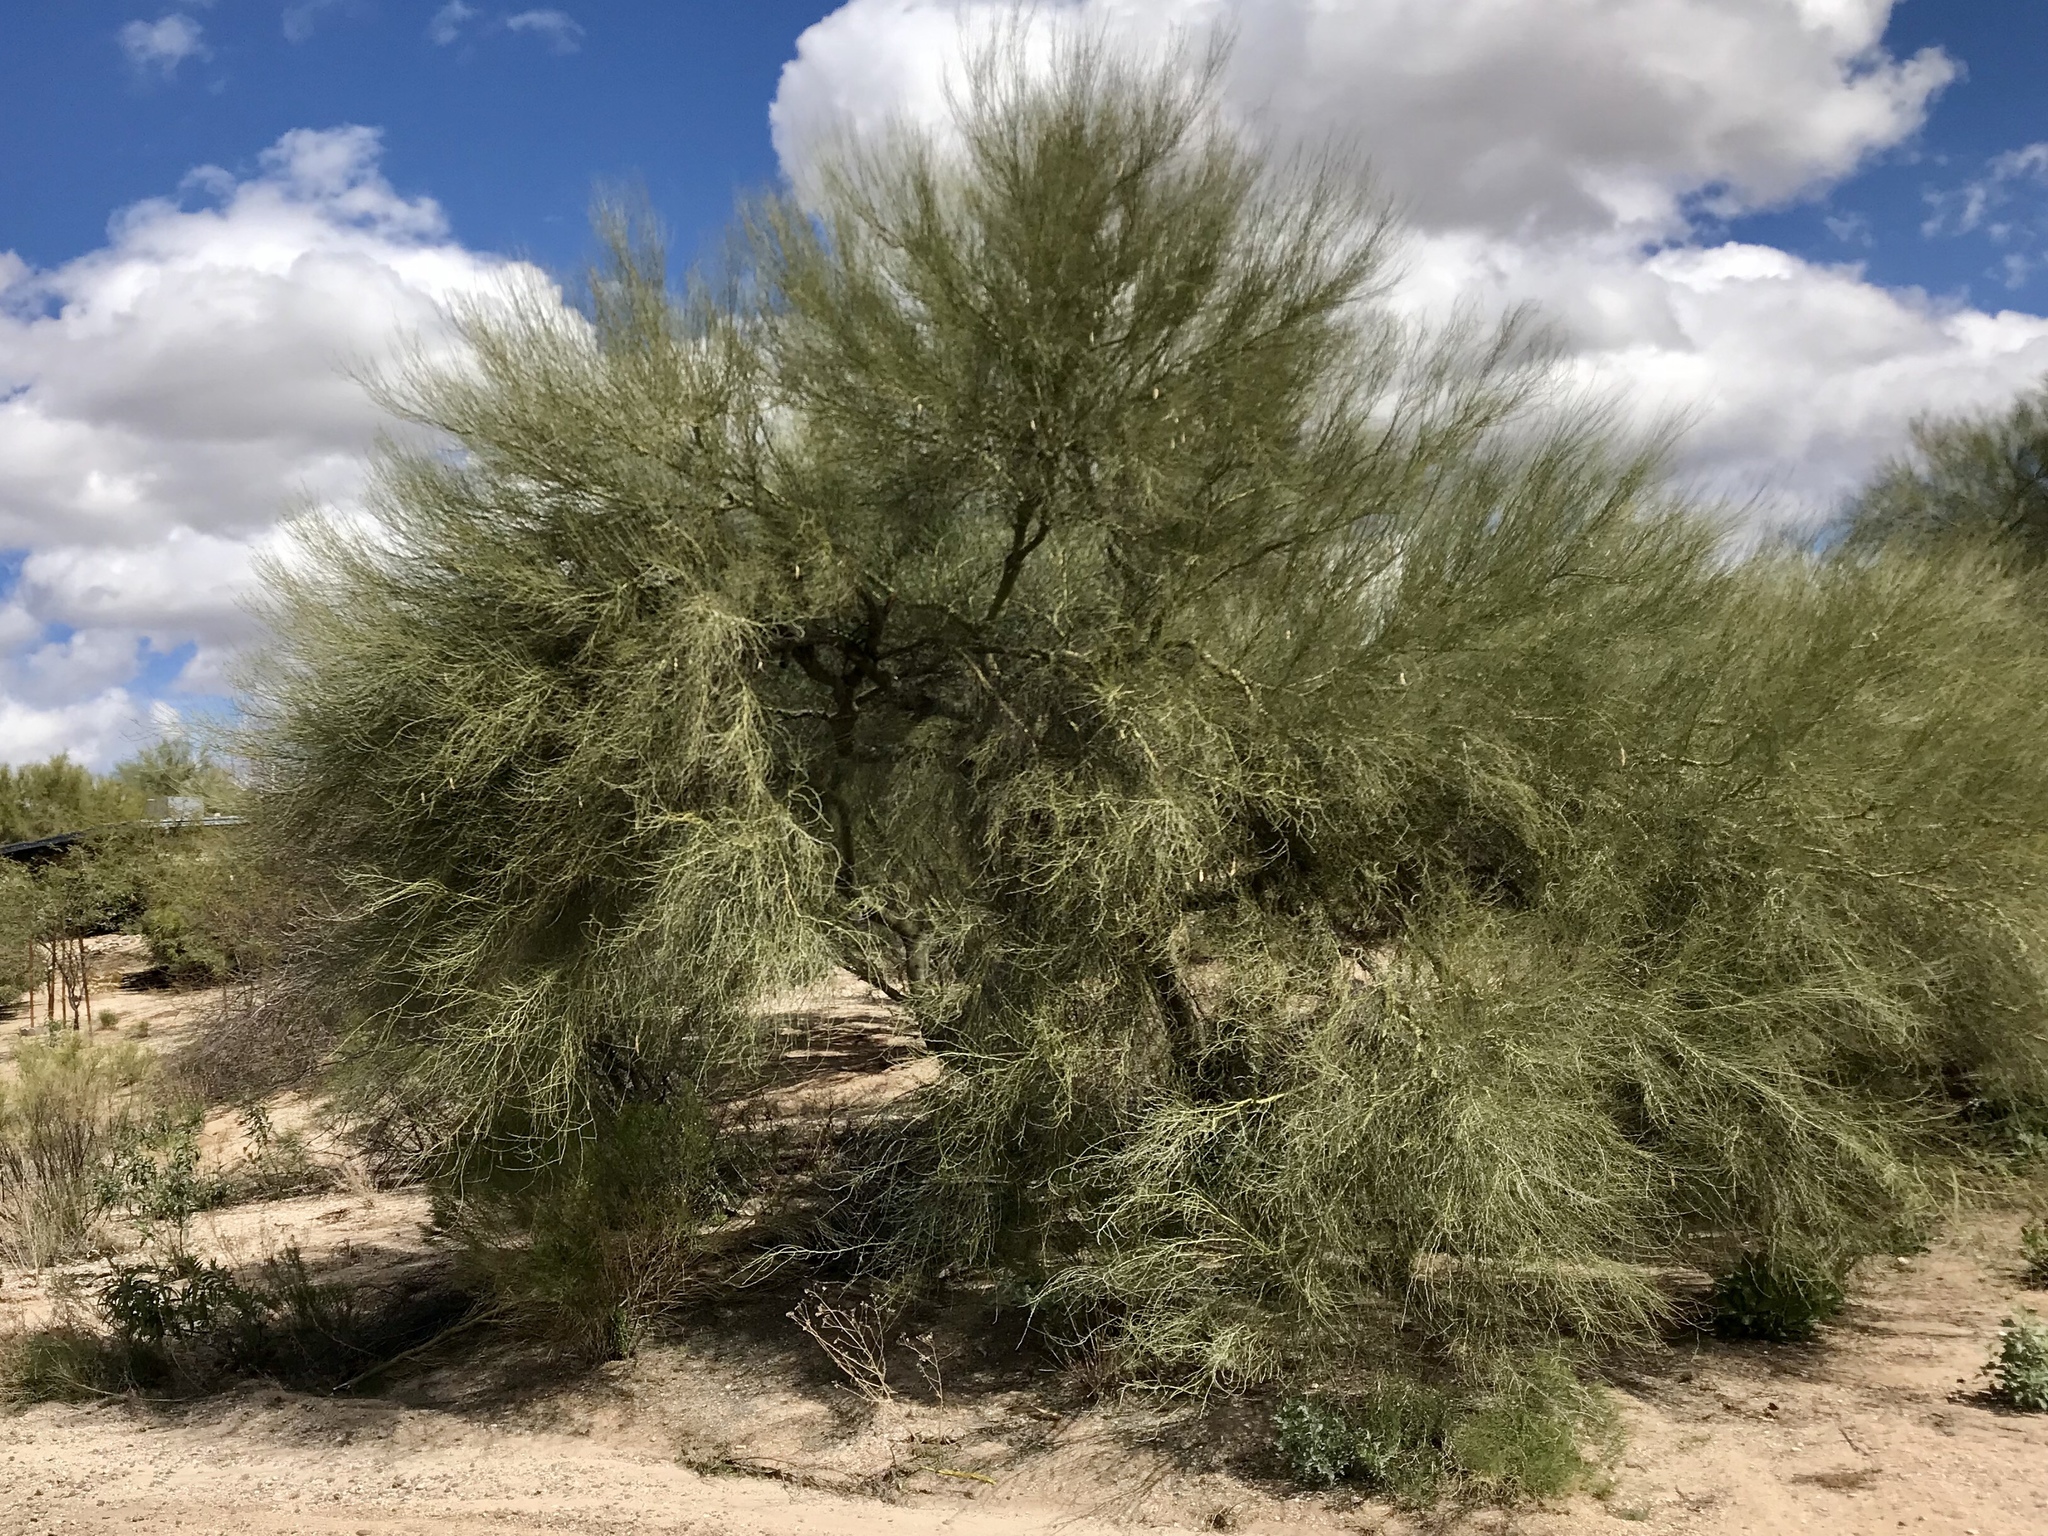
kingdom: Plantae
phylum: Tracheophyta
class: Magnoliopsida
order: Fabales
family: Fabaceae
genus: Parkinsonia
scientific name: Parkinsonia microphylla
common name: Yellow paloverde
